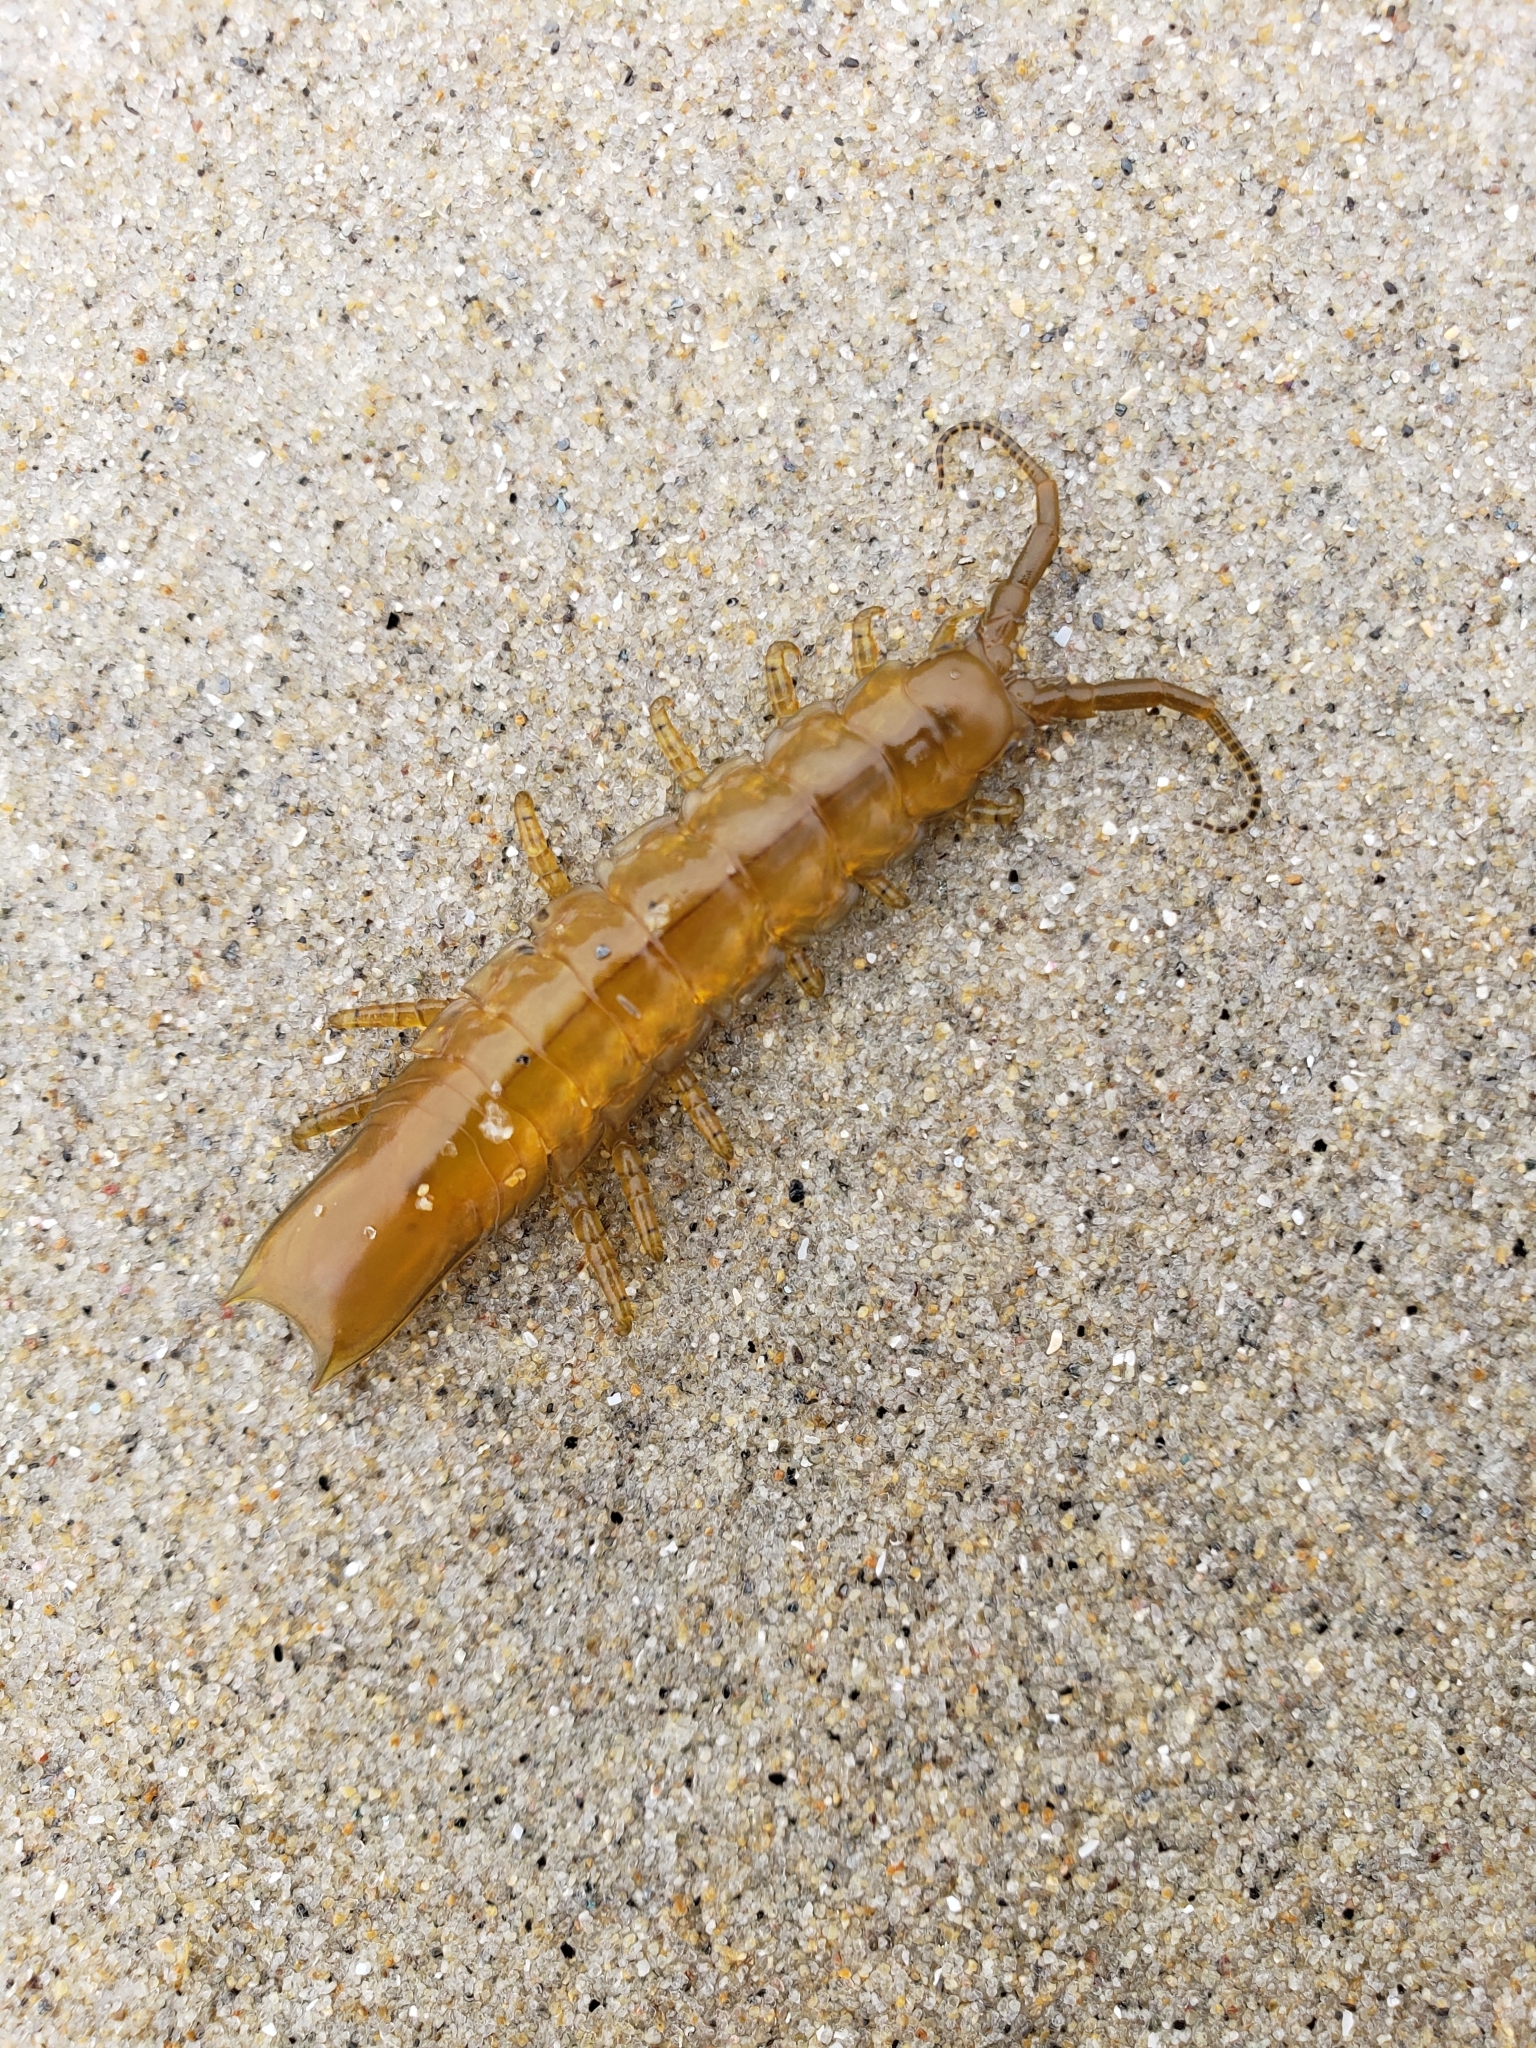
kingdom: Animalia
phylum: Arthropoda
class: Malacostraca
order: Isopoda
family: Idoteidae
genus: Pentidotea
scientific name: Pentidotea resecata
